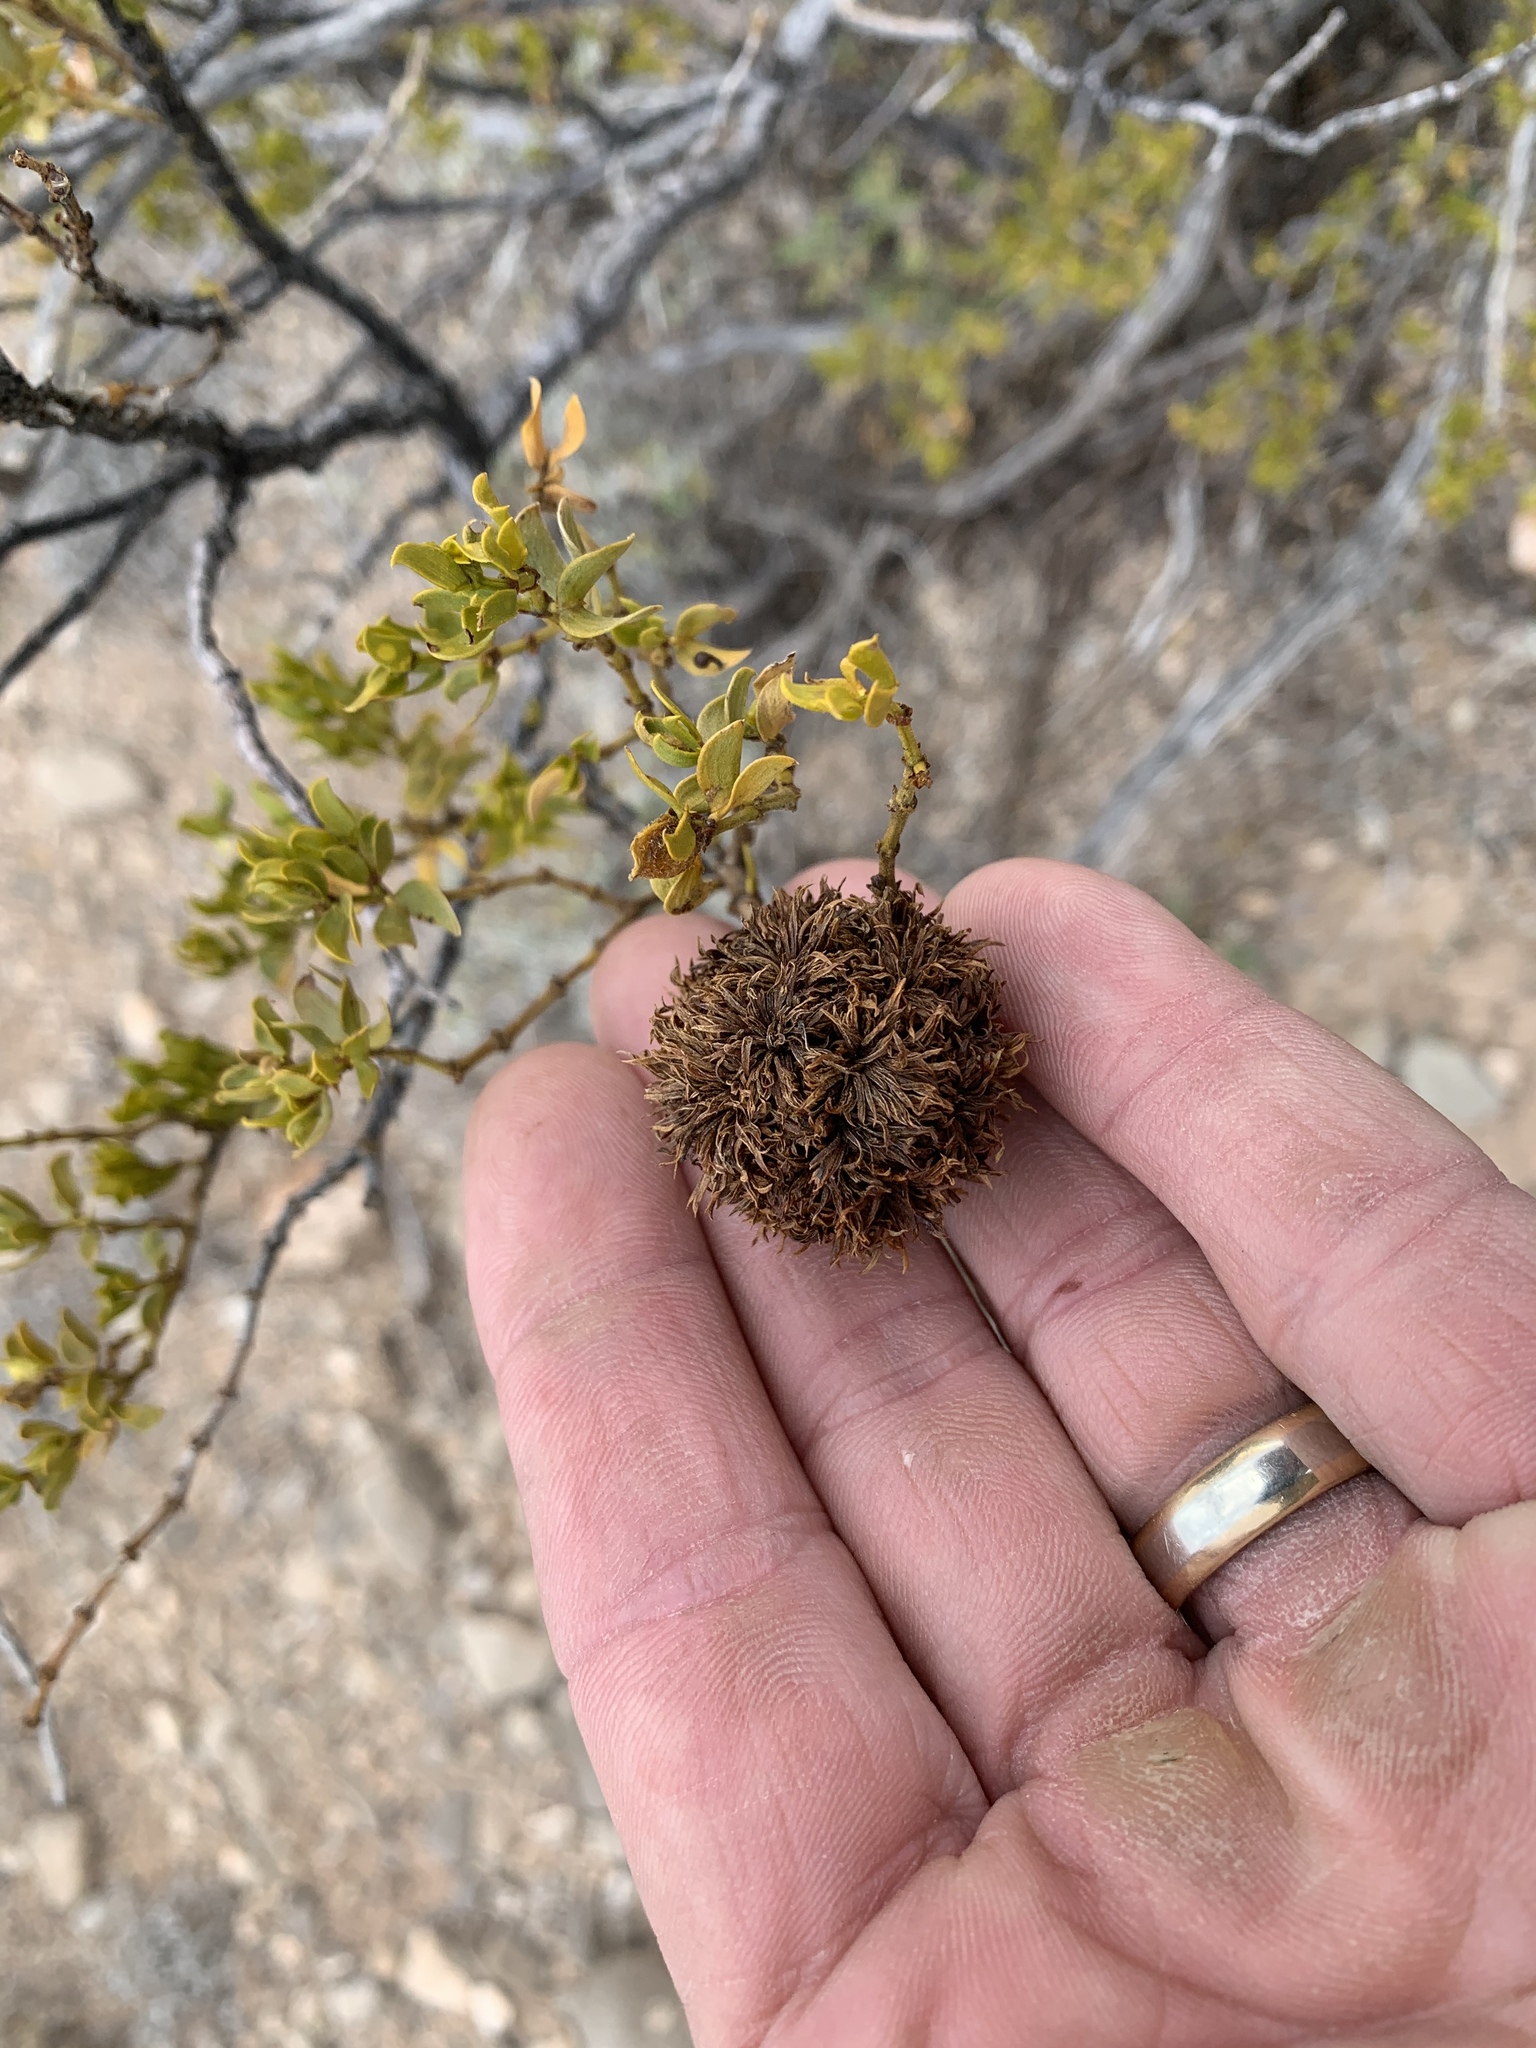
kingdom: Animalia
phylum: Arthropoda
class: Insecta
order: Diptera
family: Cecidomyiidae
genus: Asphondylia
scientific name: Asphondylia auripila
